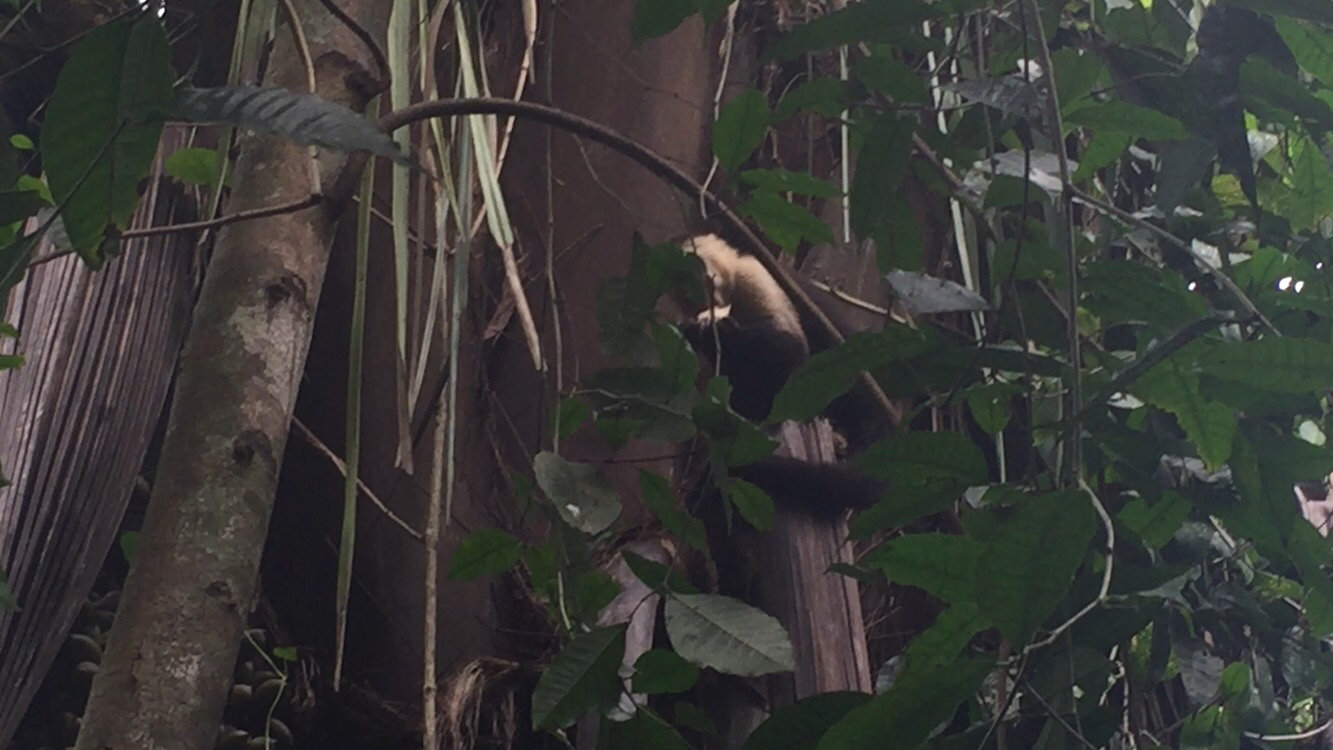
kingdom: Animalia
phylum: Chordata
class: Mammalia
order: Primates
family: Cebidae
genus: Cebus
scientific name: Cebus imitator
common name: Panamanian white-faced capuchin
